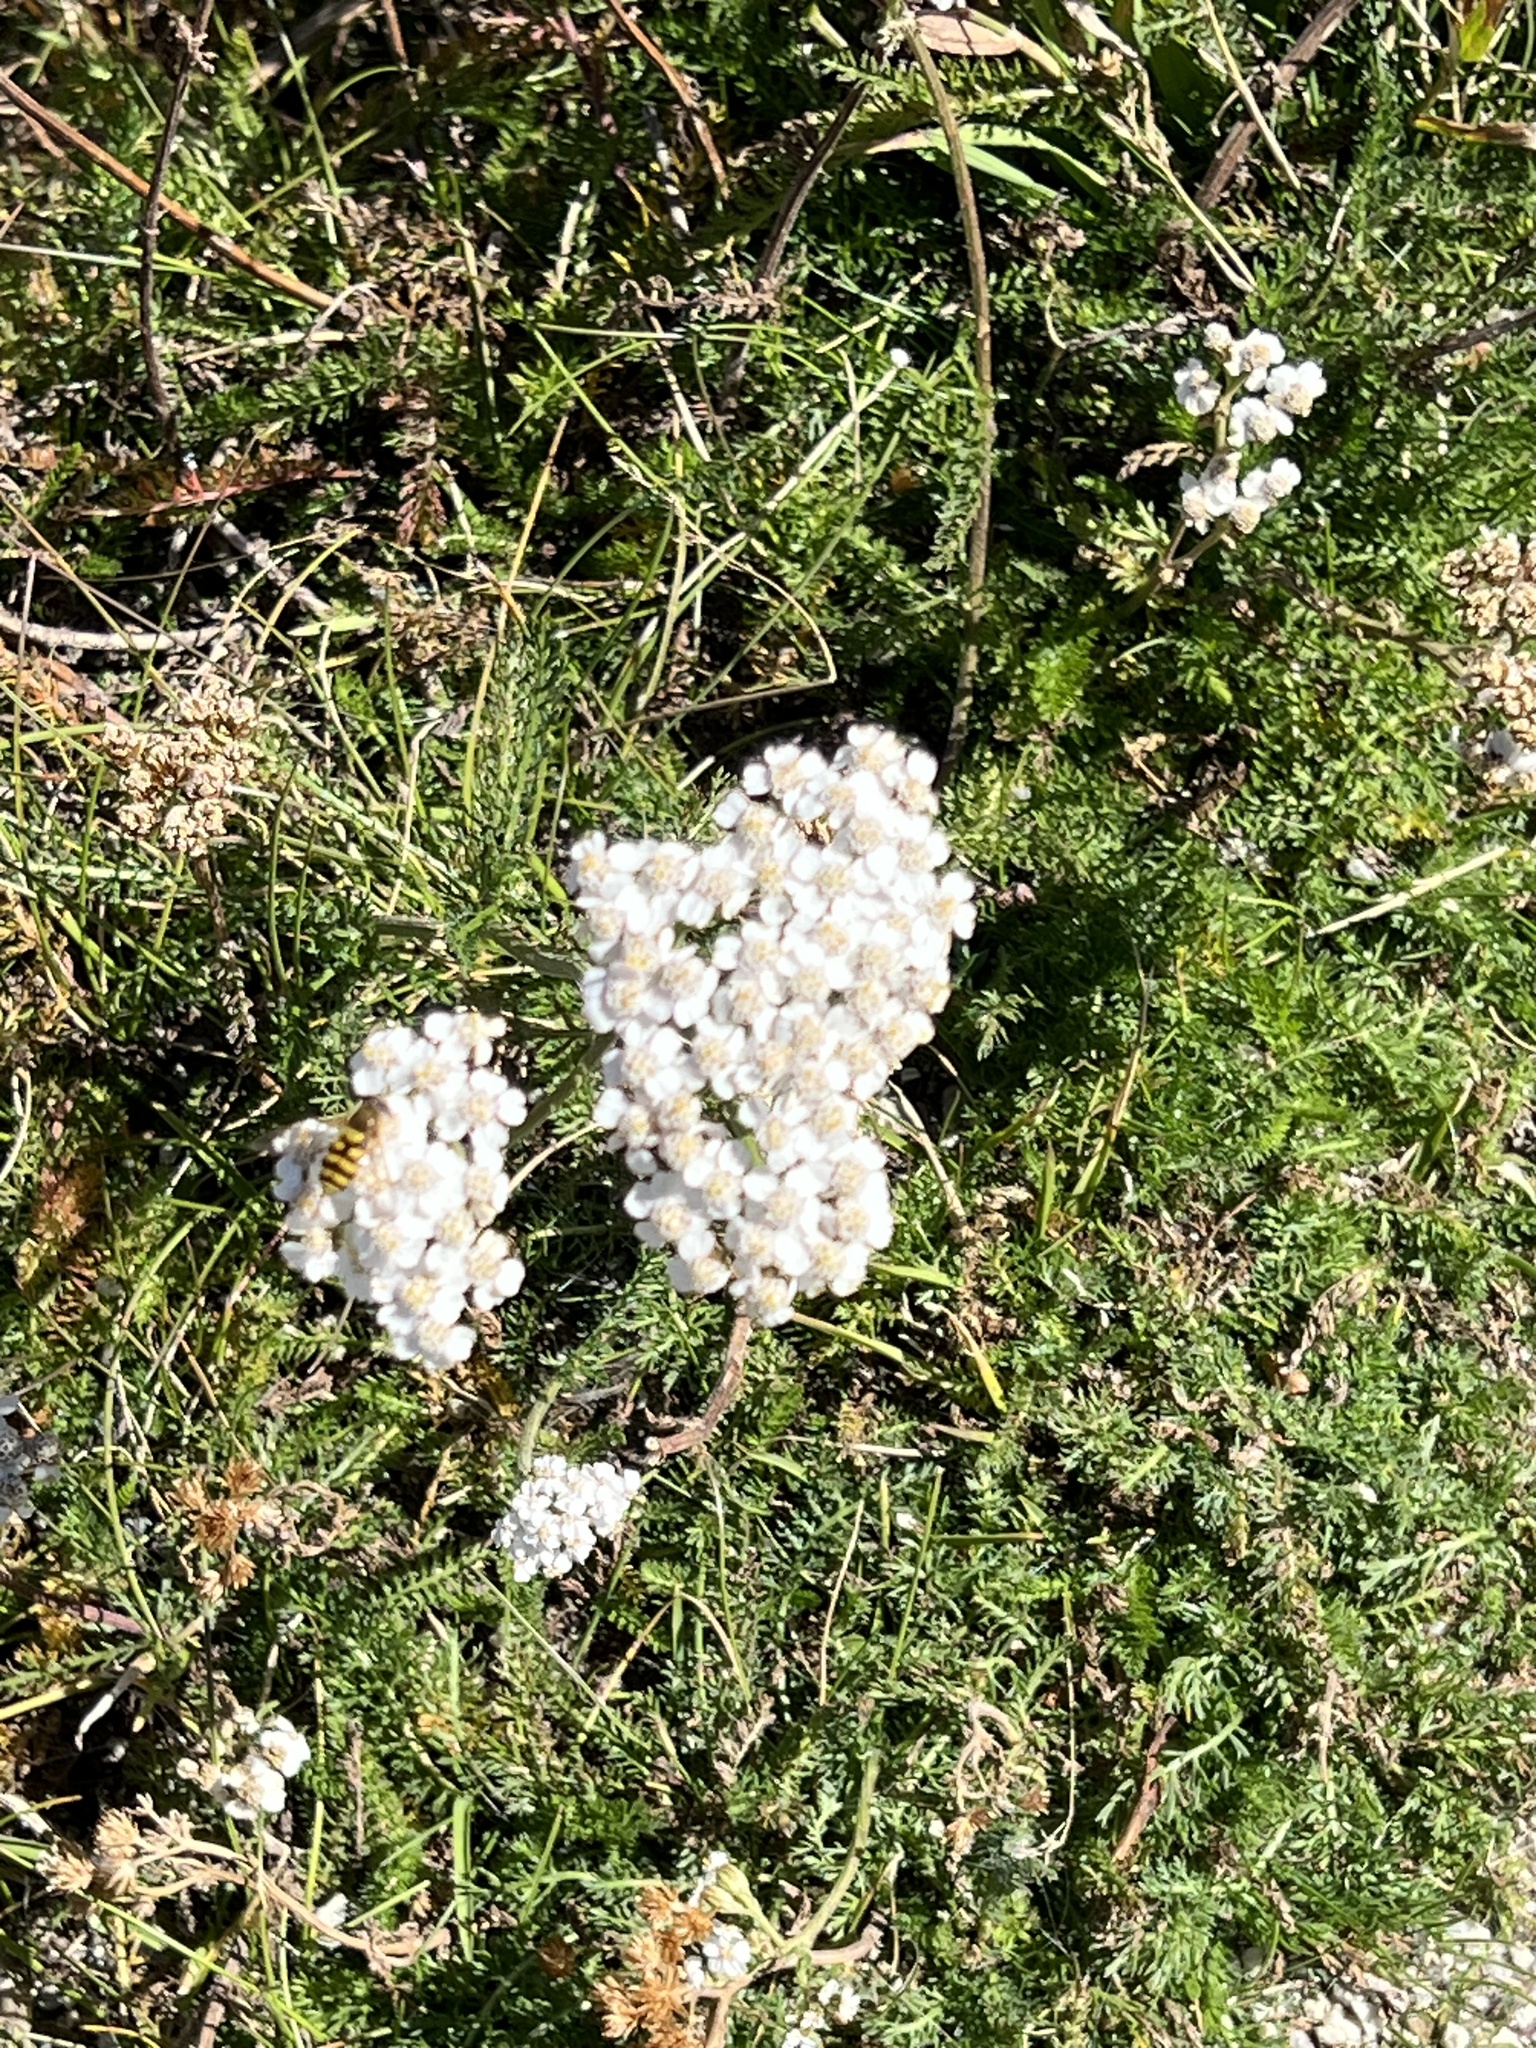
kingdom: Plantae
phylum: Tracheophyta
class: Magnoliopsida
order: Asterales
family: Asteraceae
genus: Achillea
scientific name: Achillea millefolium
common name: Yarrow
